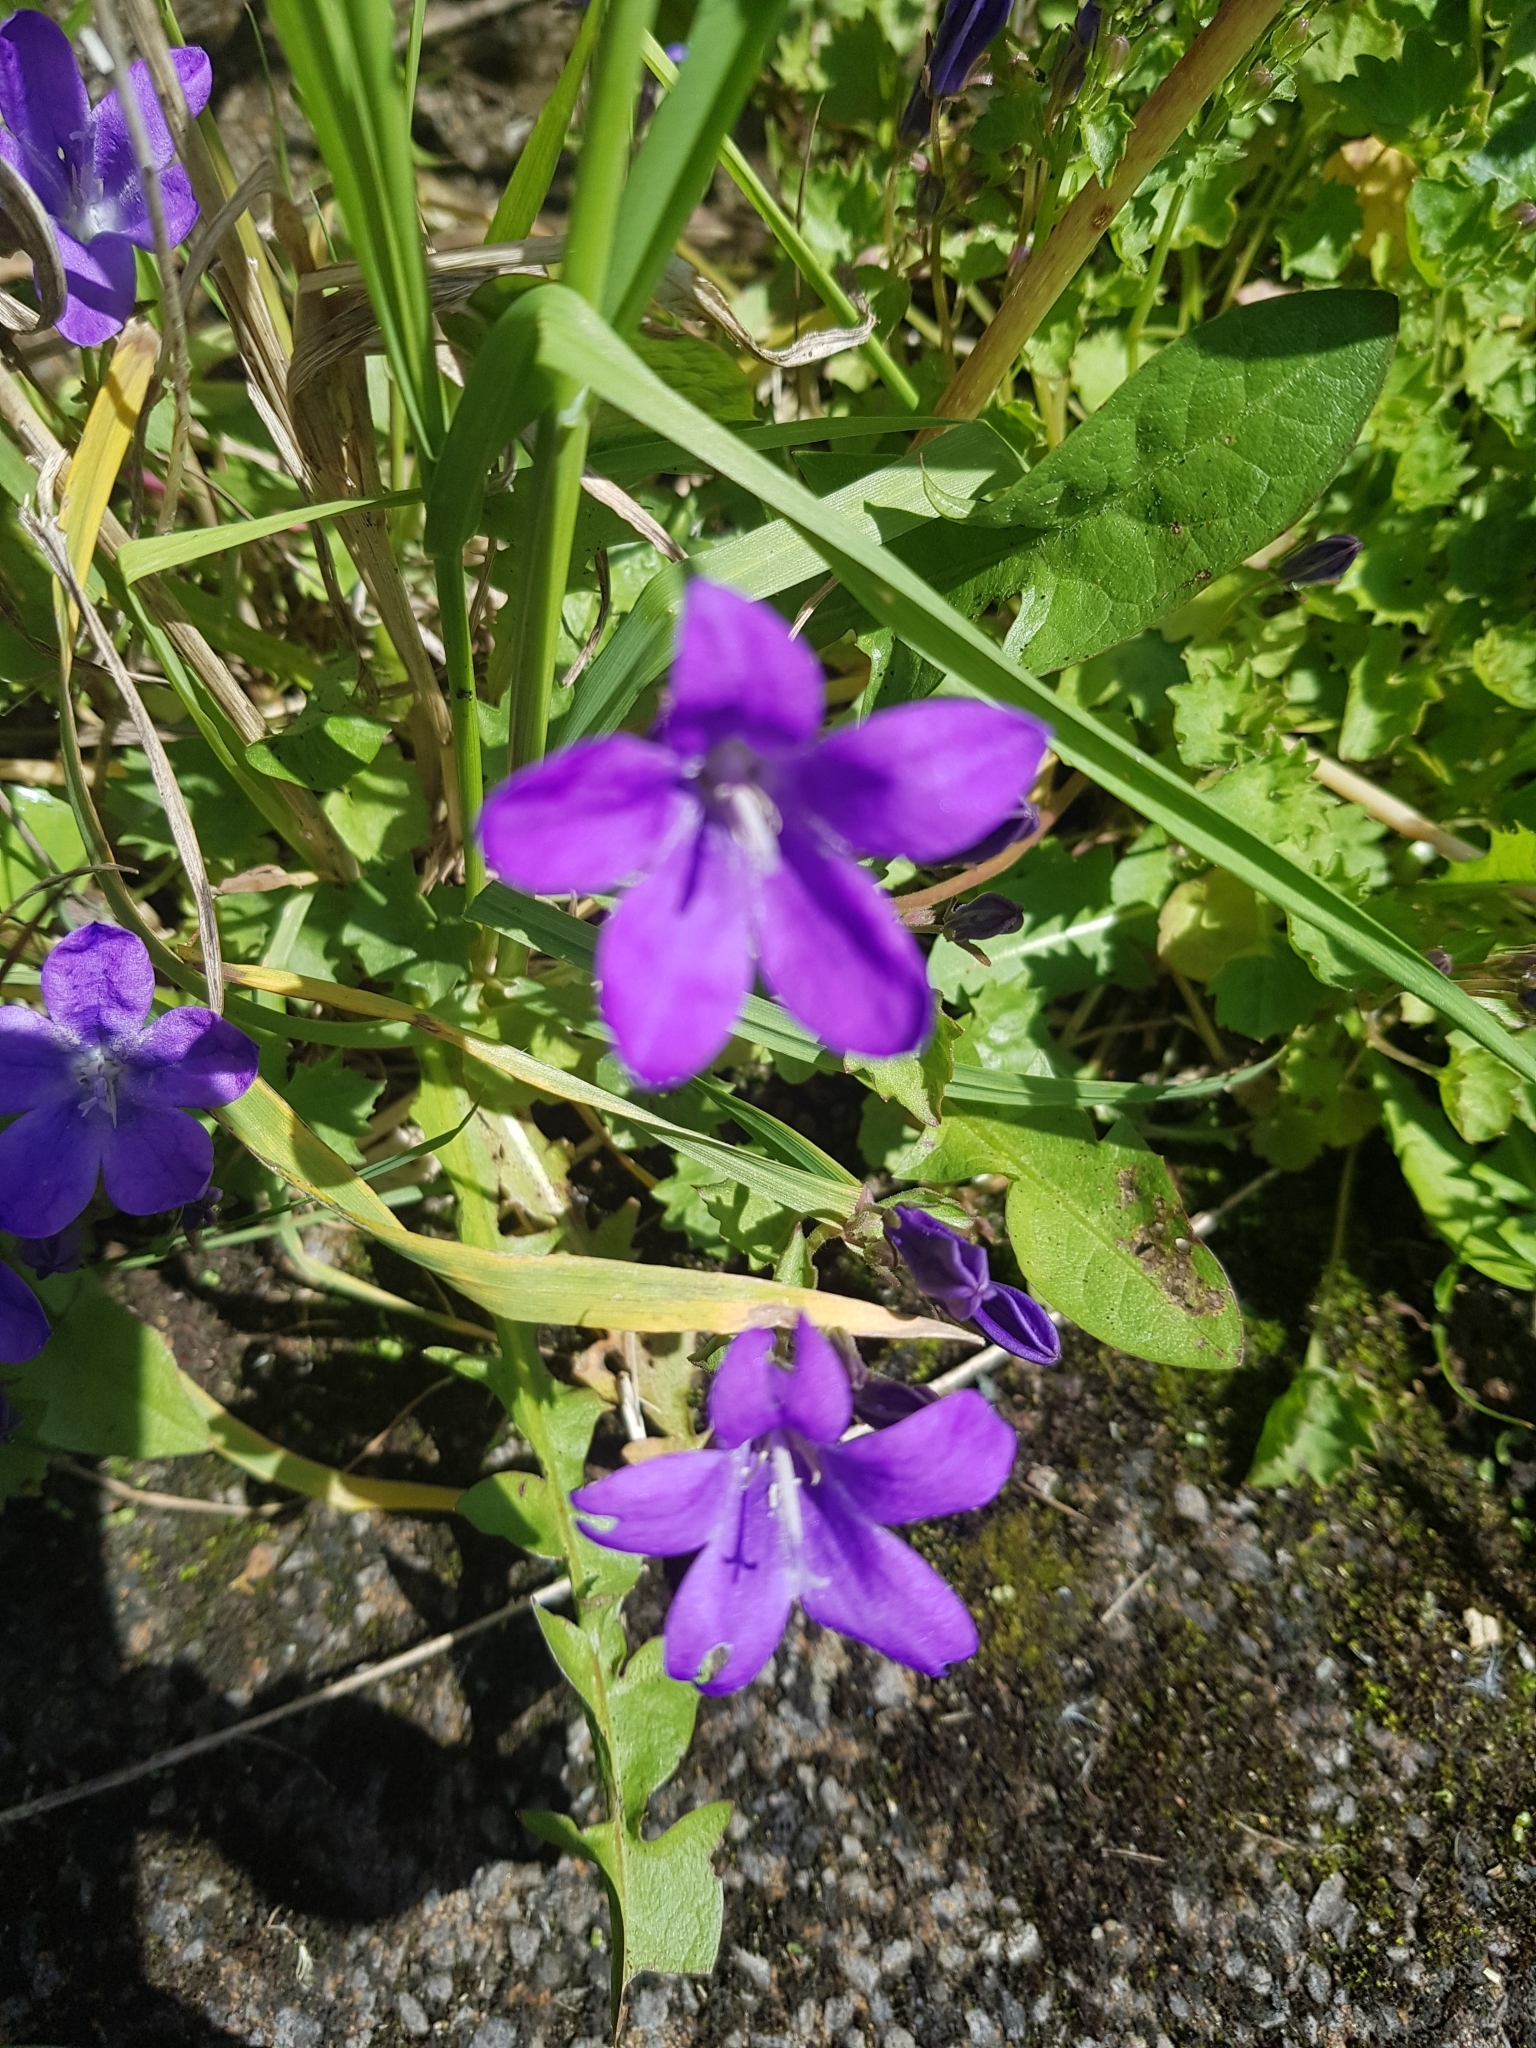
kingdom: Plantae
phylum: Tracheophyta
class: Magnoliopsida
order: Asterales
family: Campanulaceae
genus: Campanula
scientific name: Campanula portenschlagiana
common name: Adria bellflower
